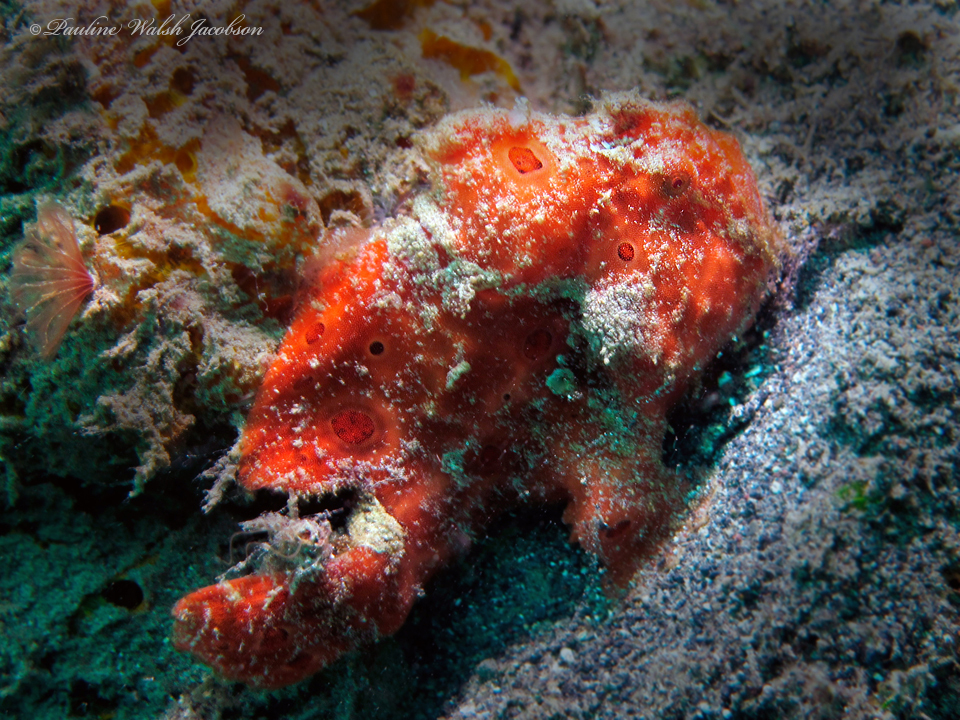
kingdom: Animalia
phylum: Chordata
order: Lophiiformes
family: Antennariidae
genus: Antennarius
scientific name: Antennarius pictus
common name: Painted frogfish
